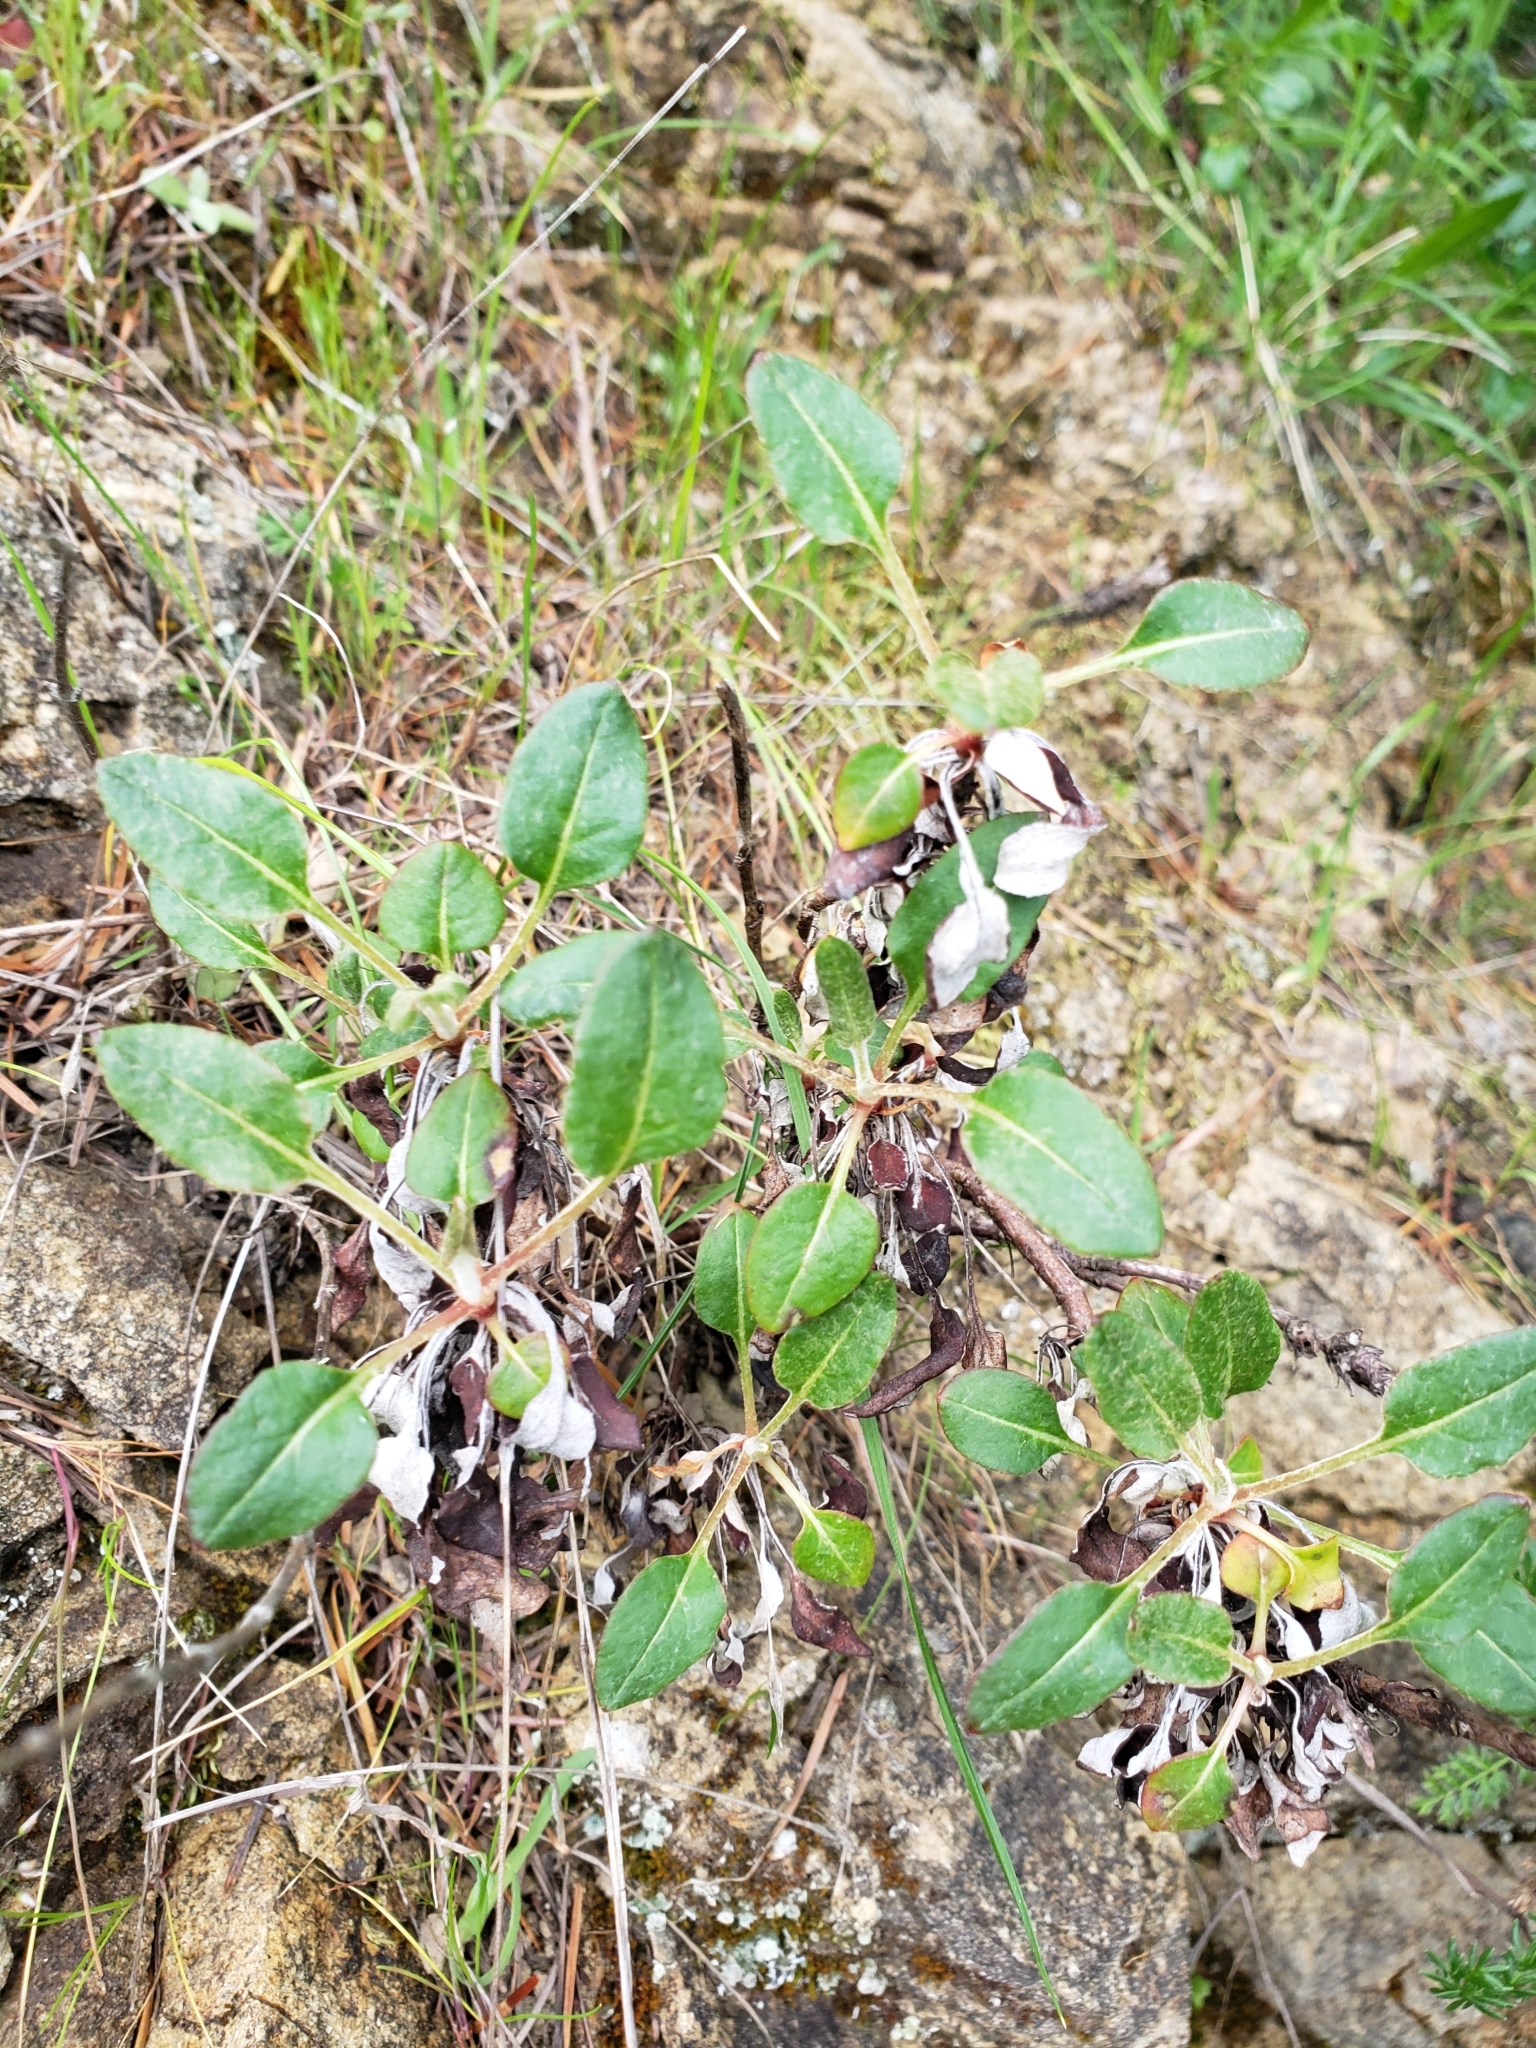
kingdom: Plantae
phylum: Tracheophyta
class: Magnoliopsida
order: Caryophyllales
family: Polygonaceae
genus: Eriogonum
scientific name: Eriogonum nudum
